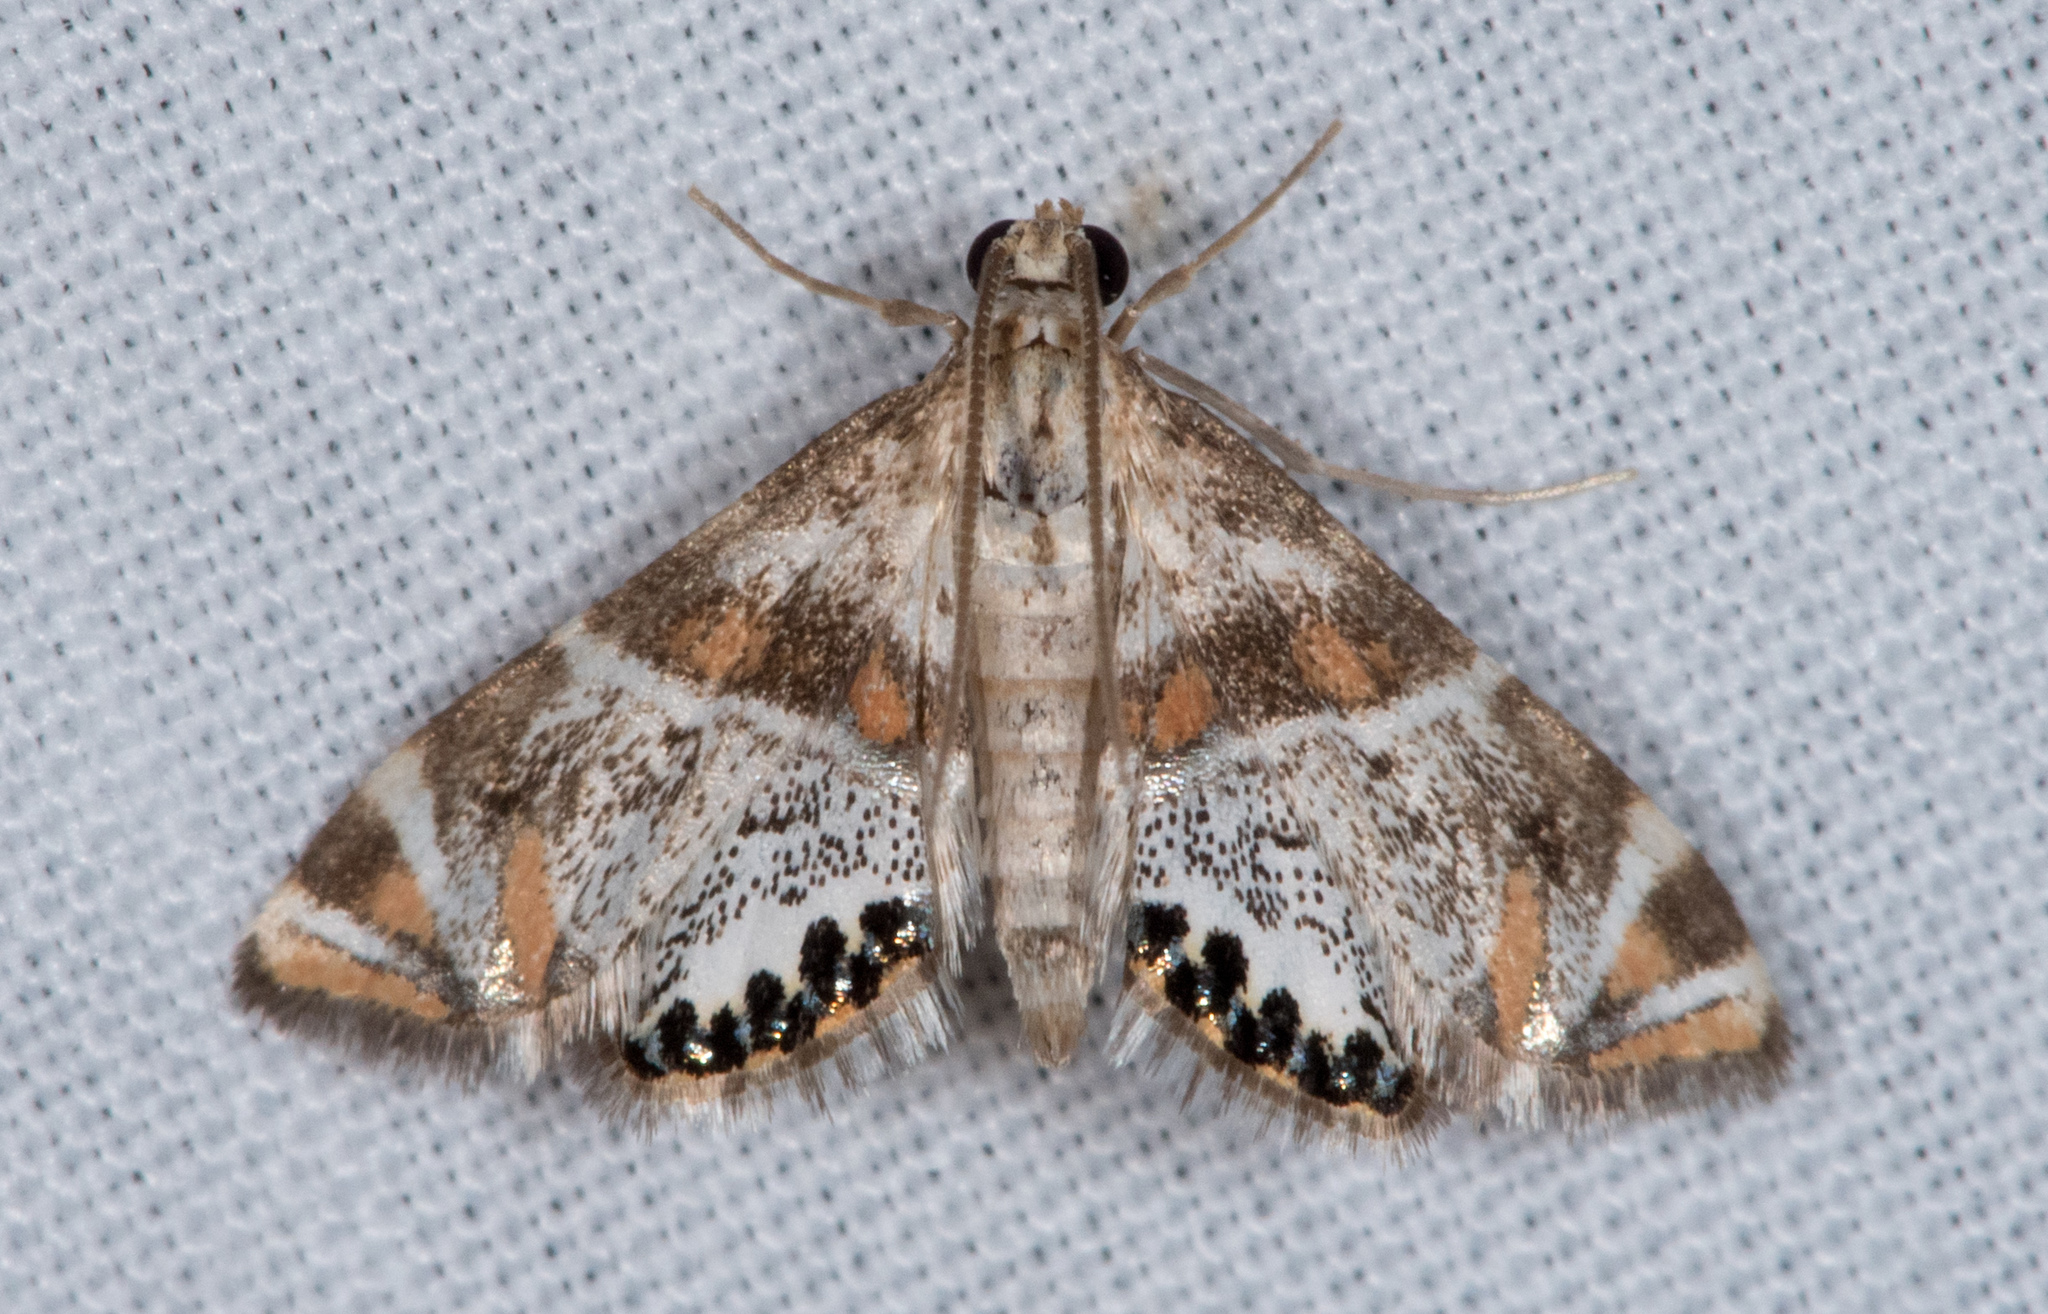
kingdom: Animalia
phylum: Arthropoda
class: Insecta
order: Lepidoptera
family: Crambidae
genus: Petrophila
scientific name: Petrophila jaliscalis
